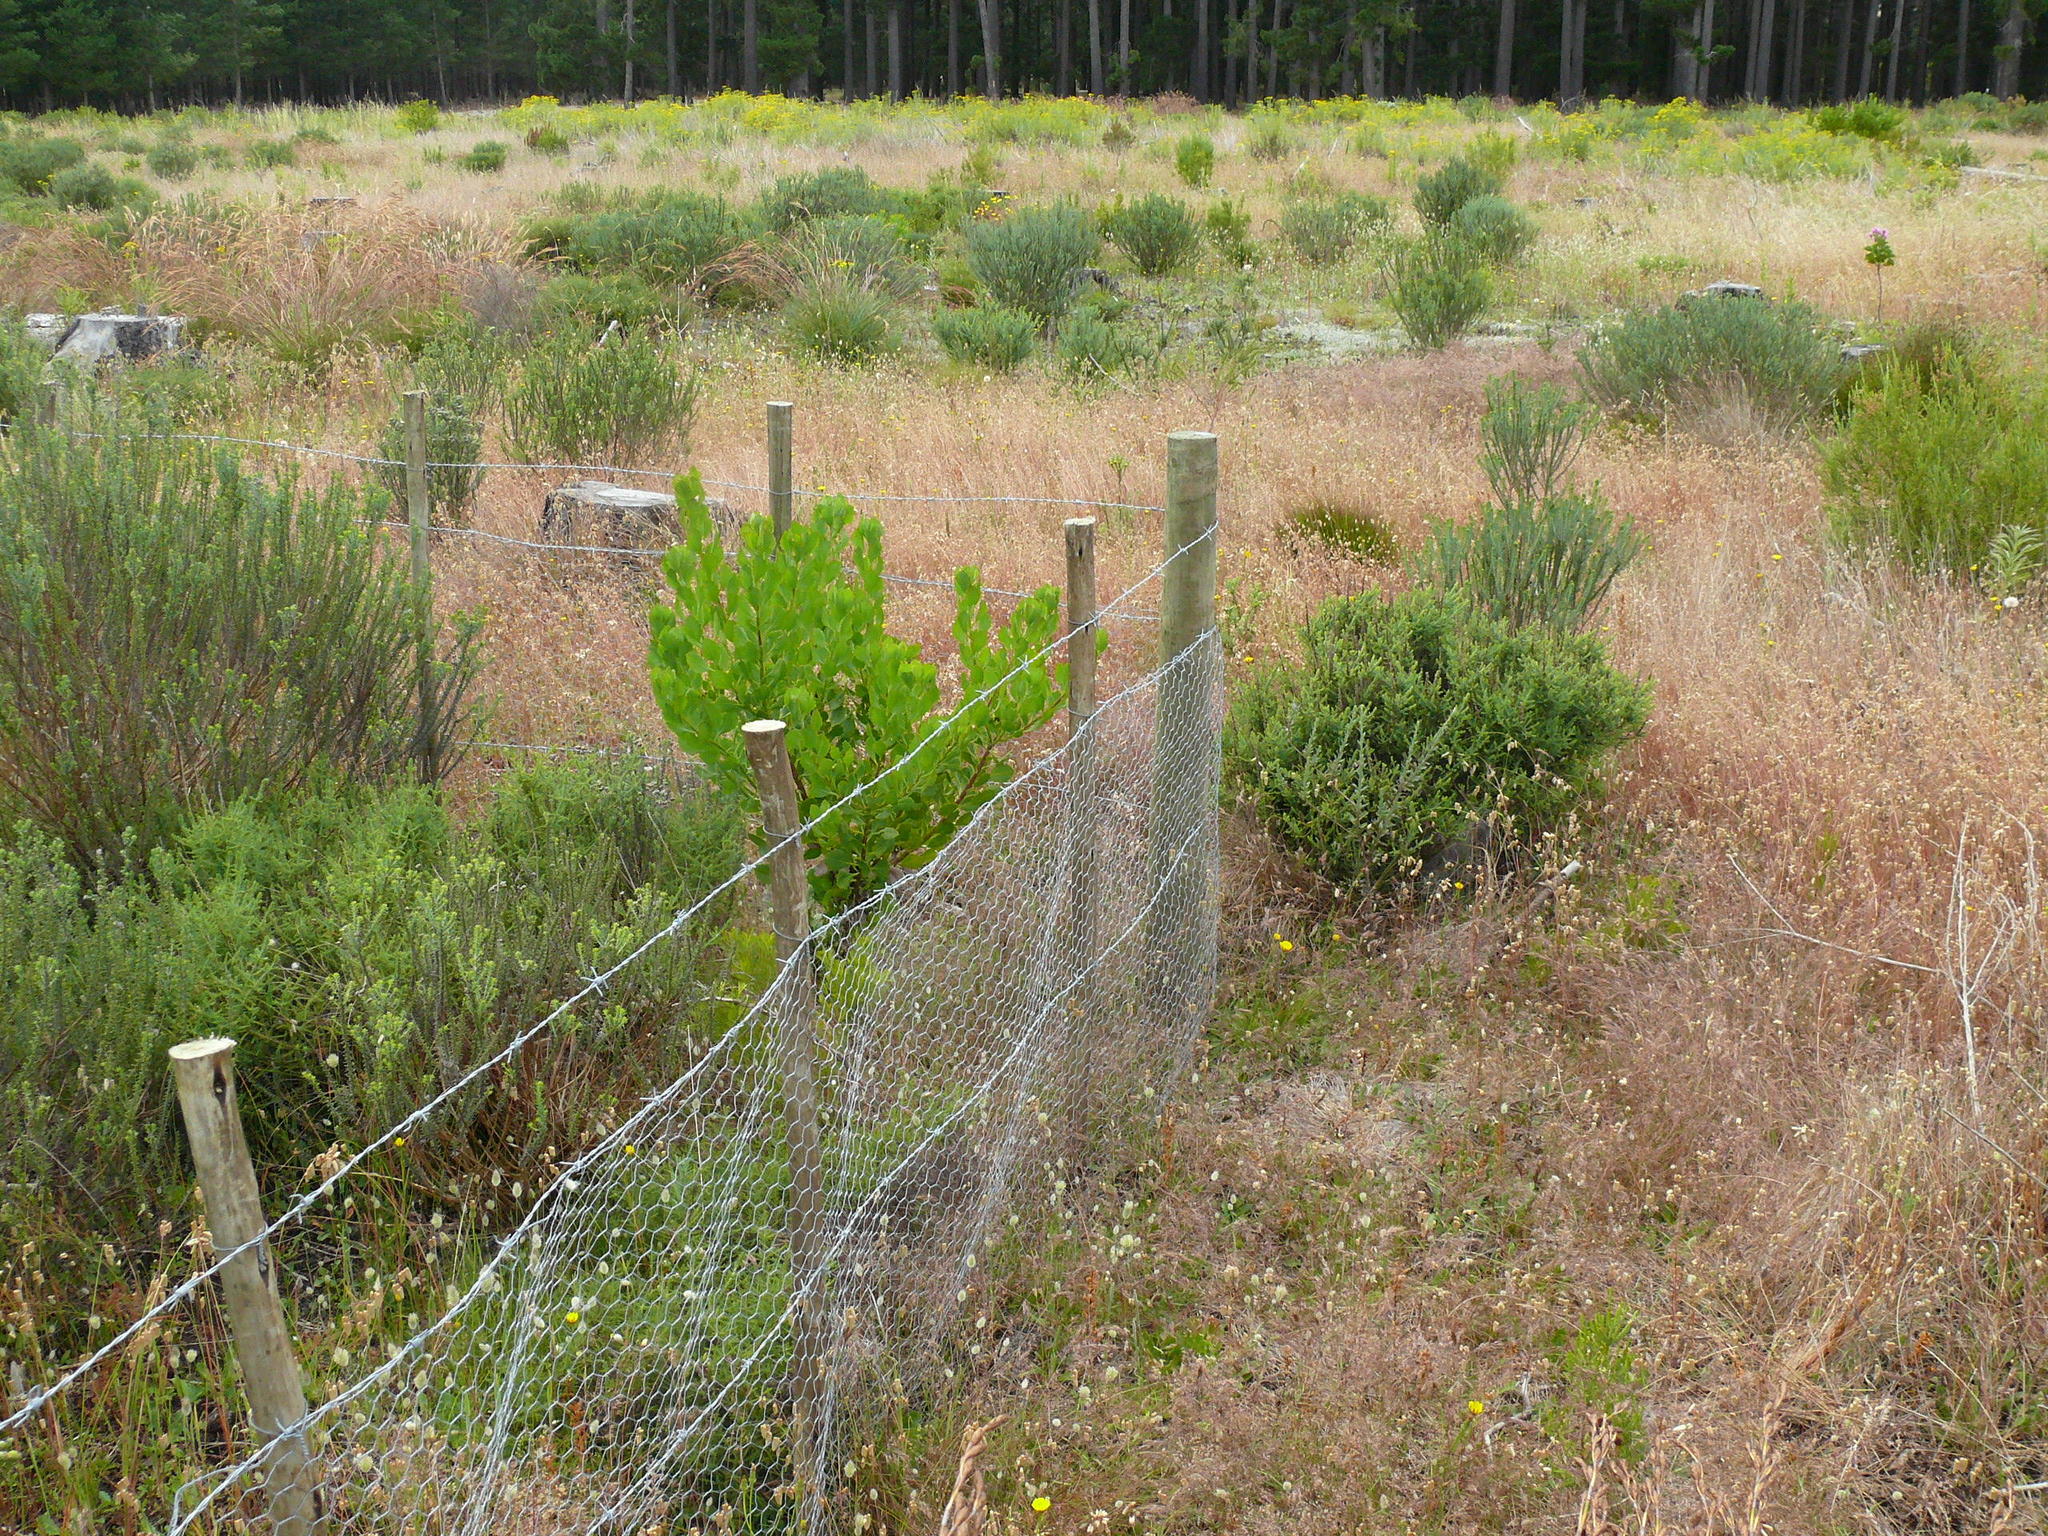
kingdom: Plantae
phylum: Tracheophyta
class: Magnoliopsida
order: Asterales
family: Asteraceae
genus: Osteospermum
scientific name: Osteospermum moniliferum
